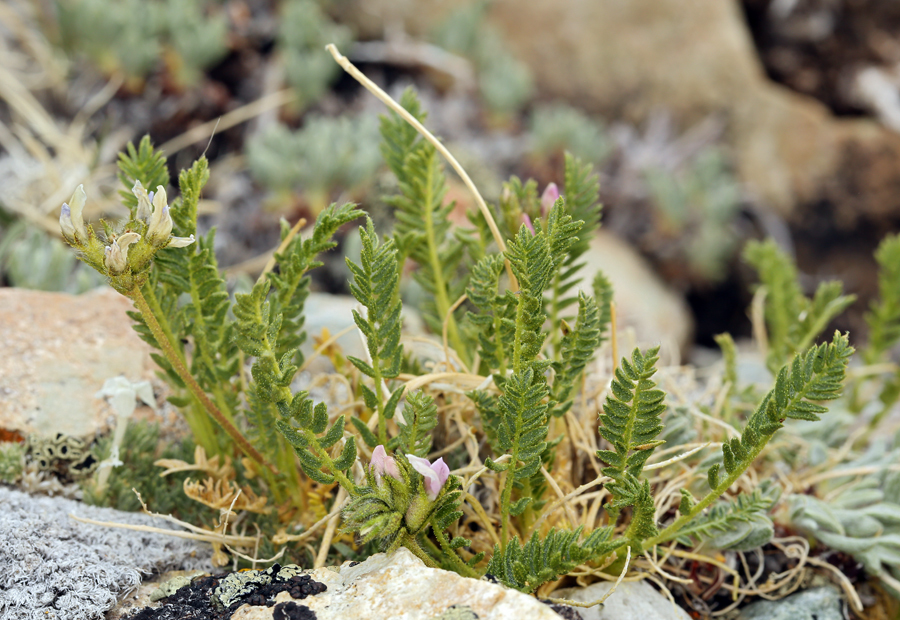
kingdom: Plantae
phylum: Tracheophyta
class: Magnoliopsida
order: Fabales
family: Fabaceae
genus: Oxytropis
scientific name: Oxytropis borealis
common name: Boreal locoweed
